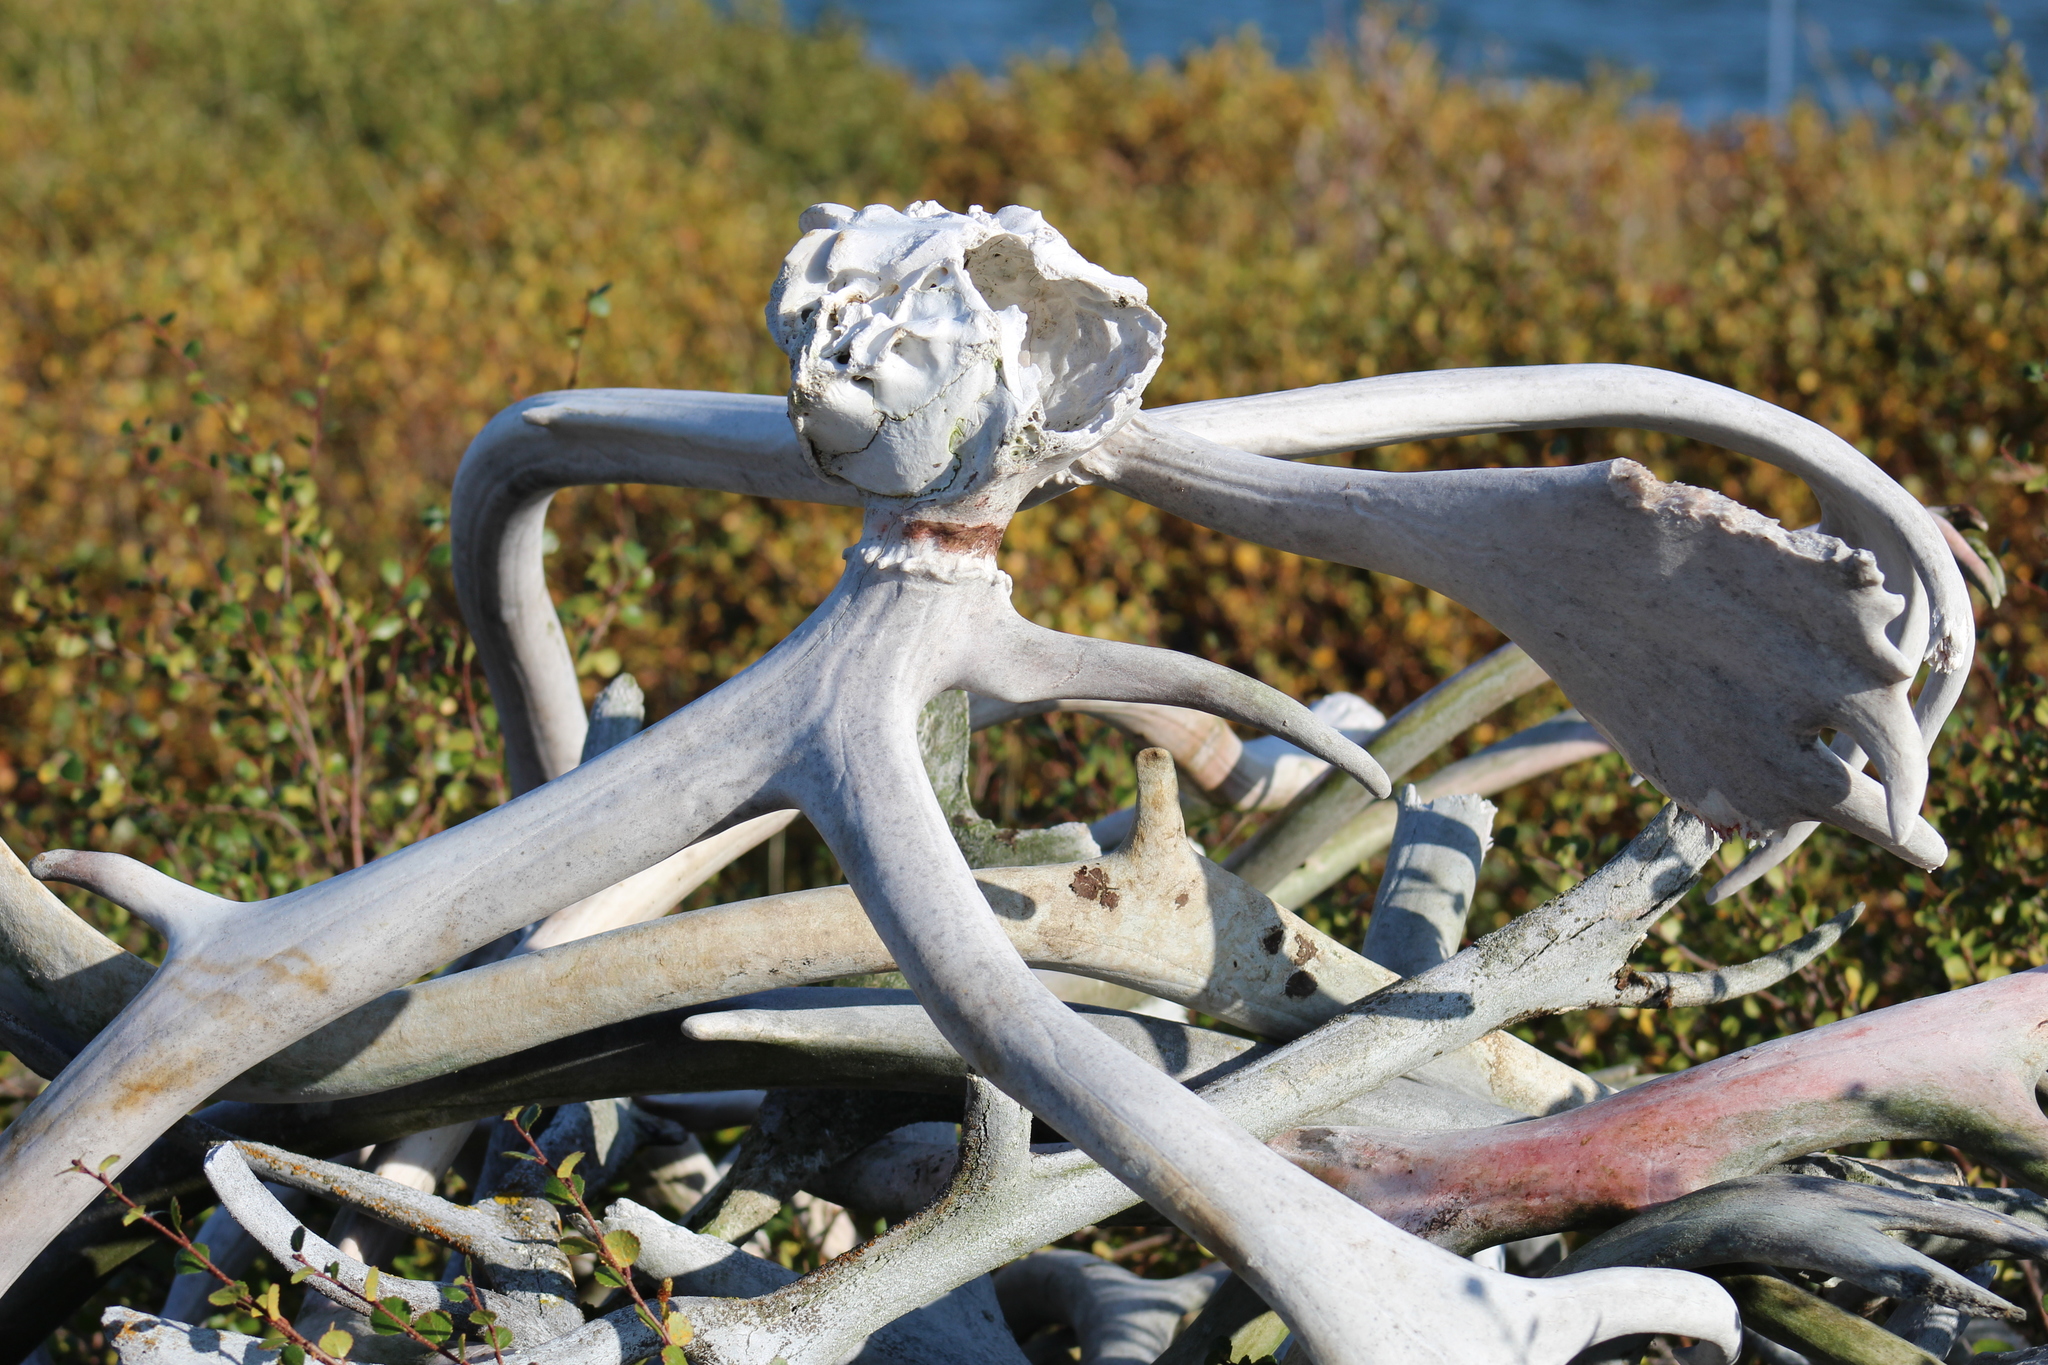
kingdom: Animalia
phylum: Chordata
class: Mammalia
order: Artiodactyla
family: Cervidae
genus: Rangifer
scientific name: Rangifer tarandus
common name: Reindeer
